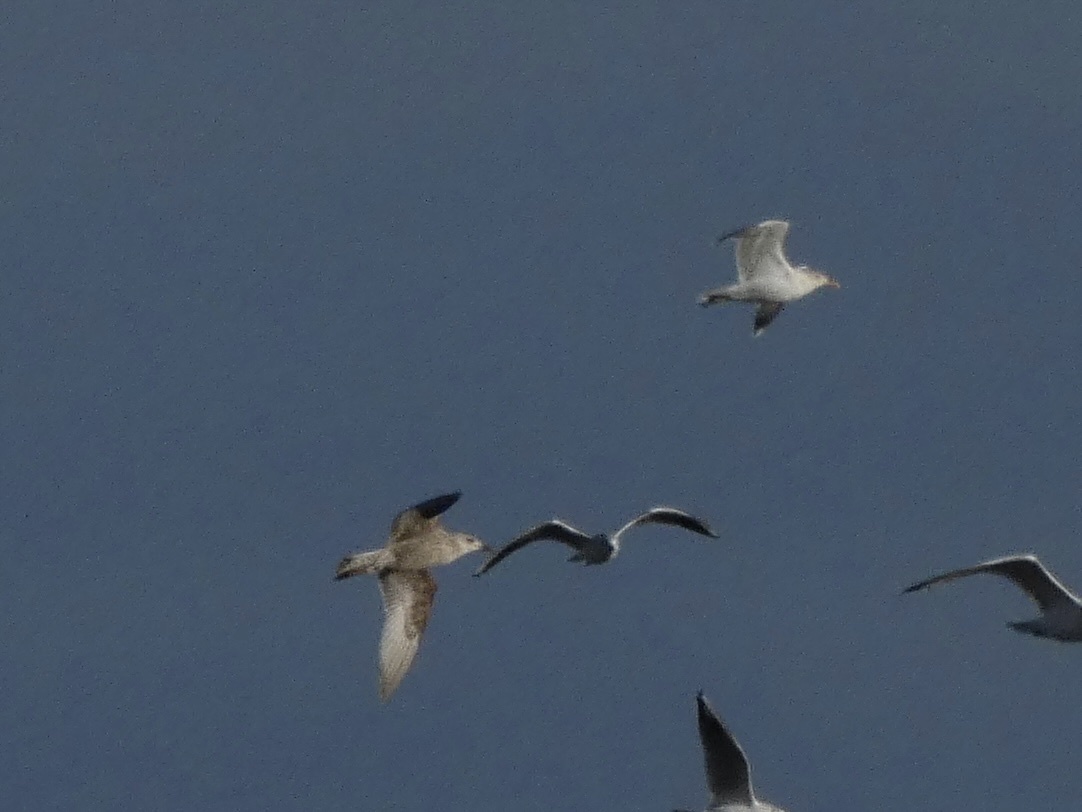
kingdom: Animalia
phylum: Chordata
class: Aves
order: Charadriiformes
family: Laridae
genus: Larus
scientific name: Larus argentatus
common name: Herring gull
